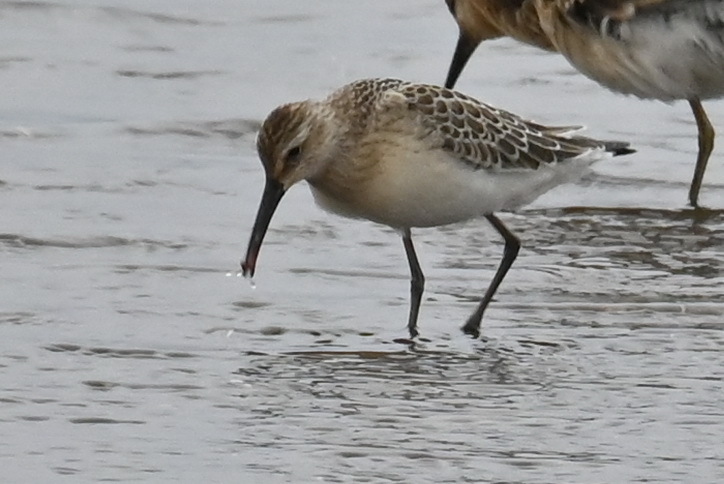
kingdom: Animalia
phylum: Chordata
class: Aves
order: Charadriiformes
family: Scolopacidae
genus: Calidris
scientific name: Calidris ferruginea
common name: Curlew sandpiper
